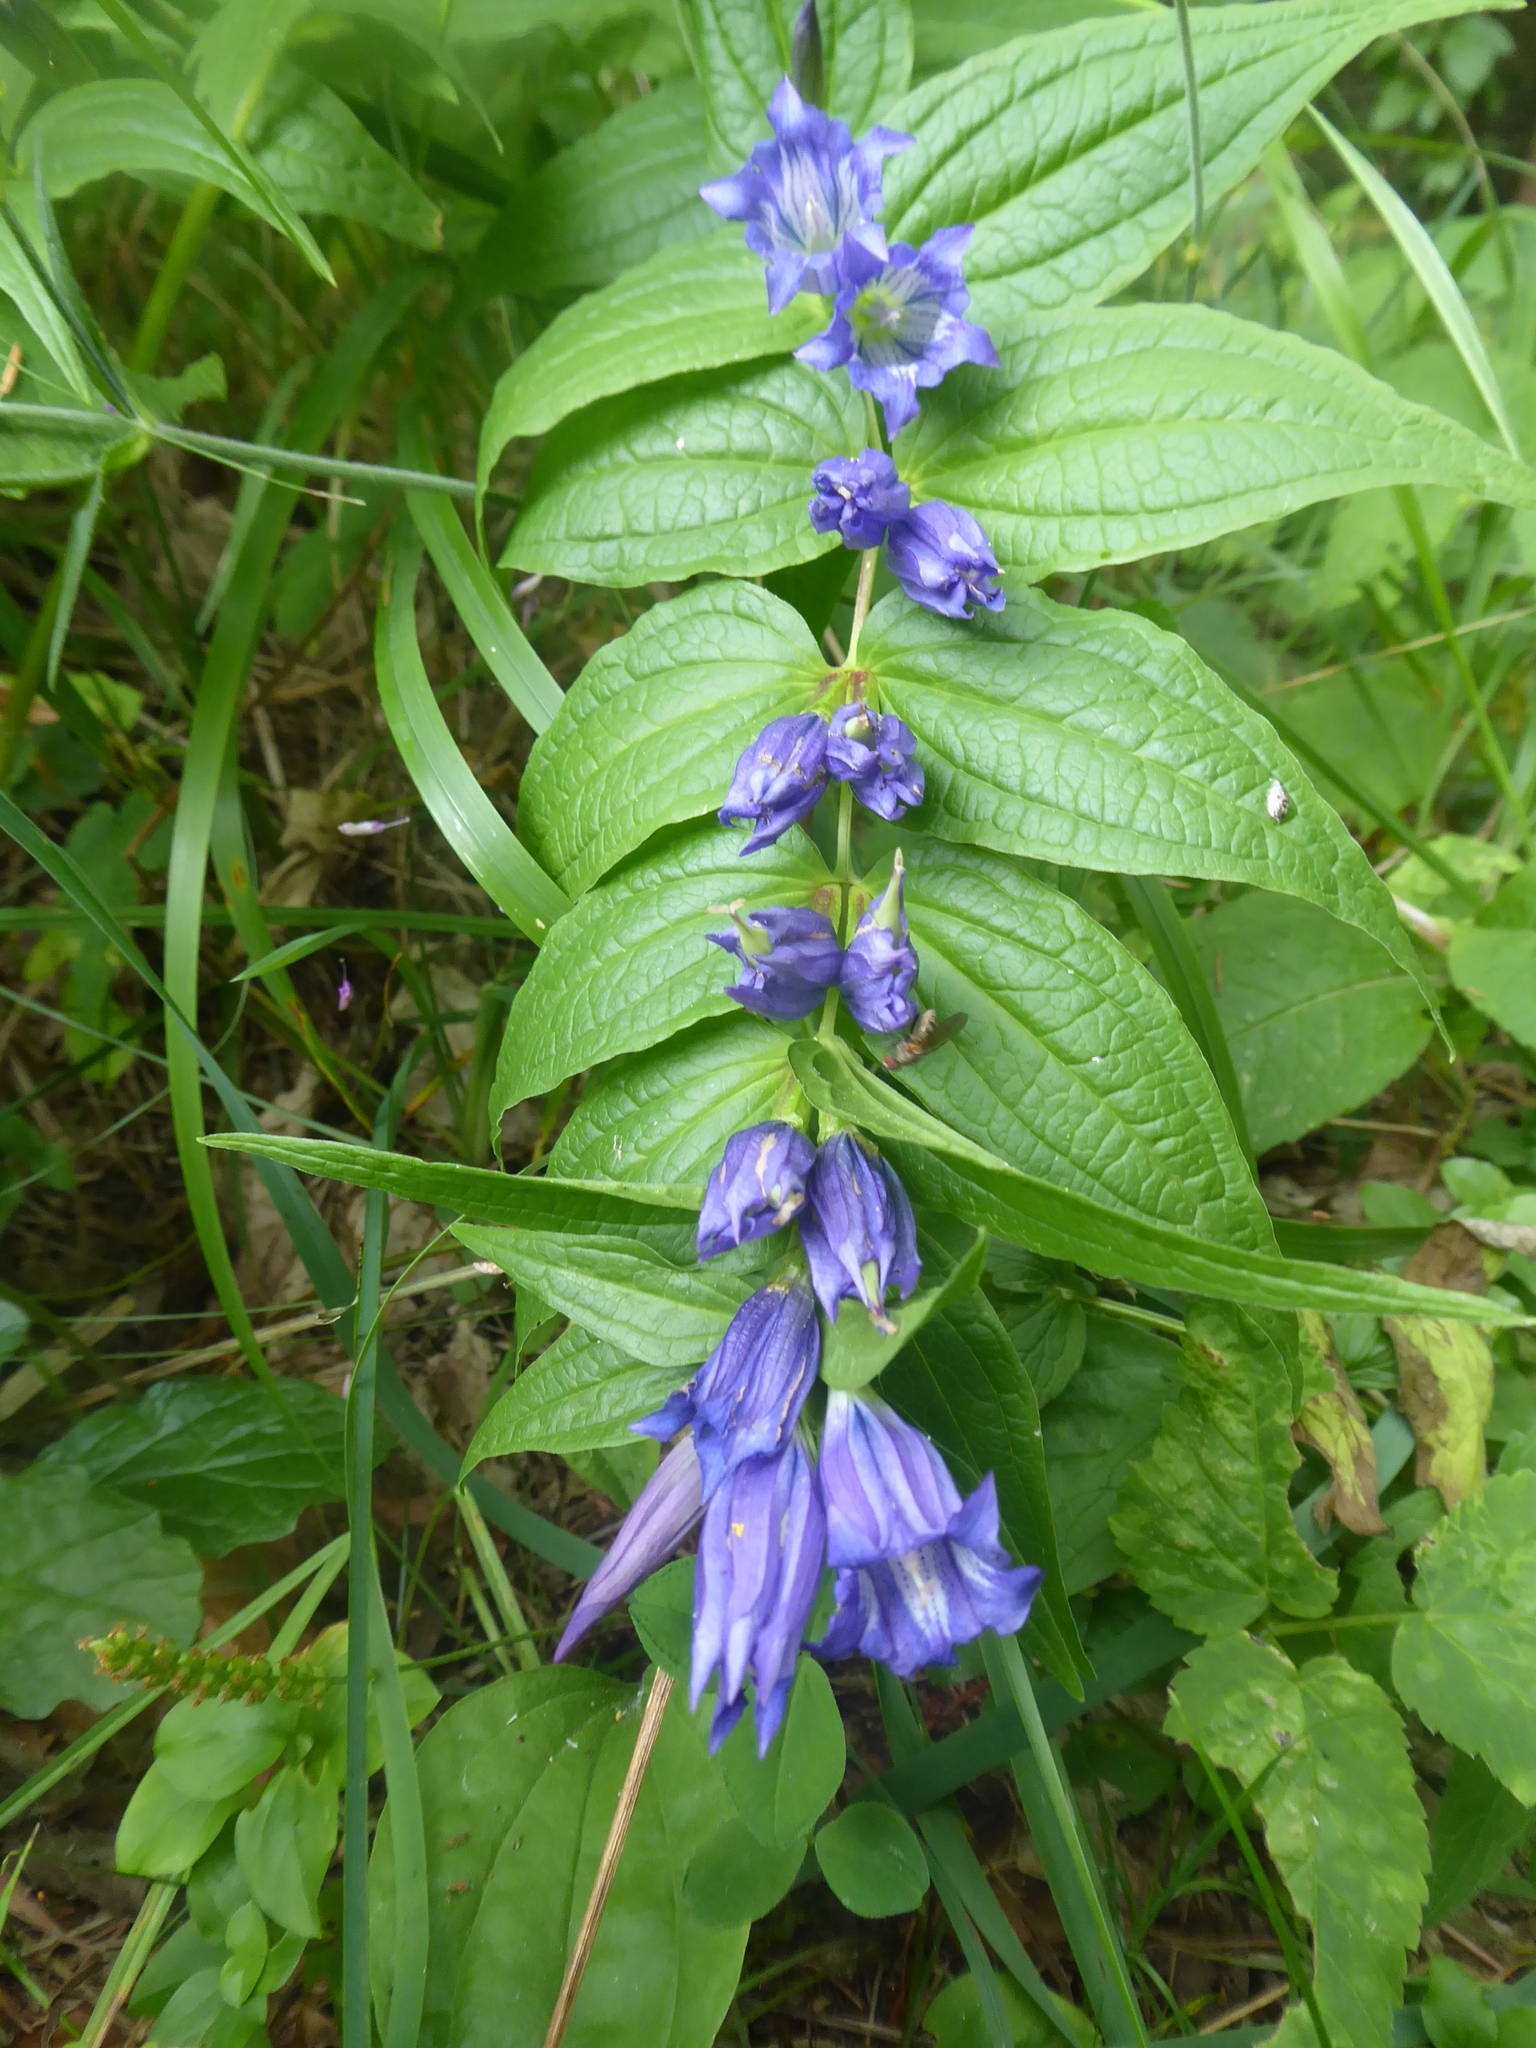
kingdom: Plantae
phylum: Tracheophyta
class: Magnoliopsida
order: Gentianales
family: Gentianaceae
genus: Gentiana
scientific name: Gentiana asclepiadea
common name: Willow gentian
